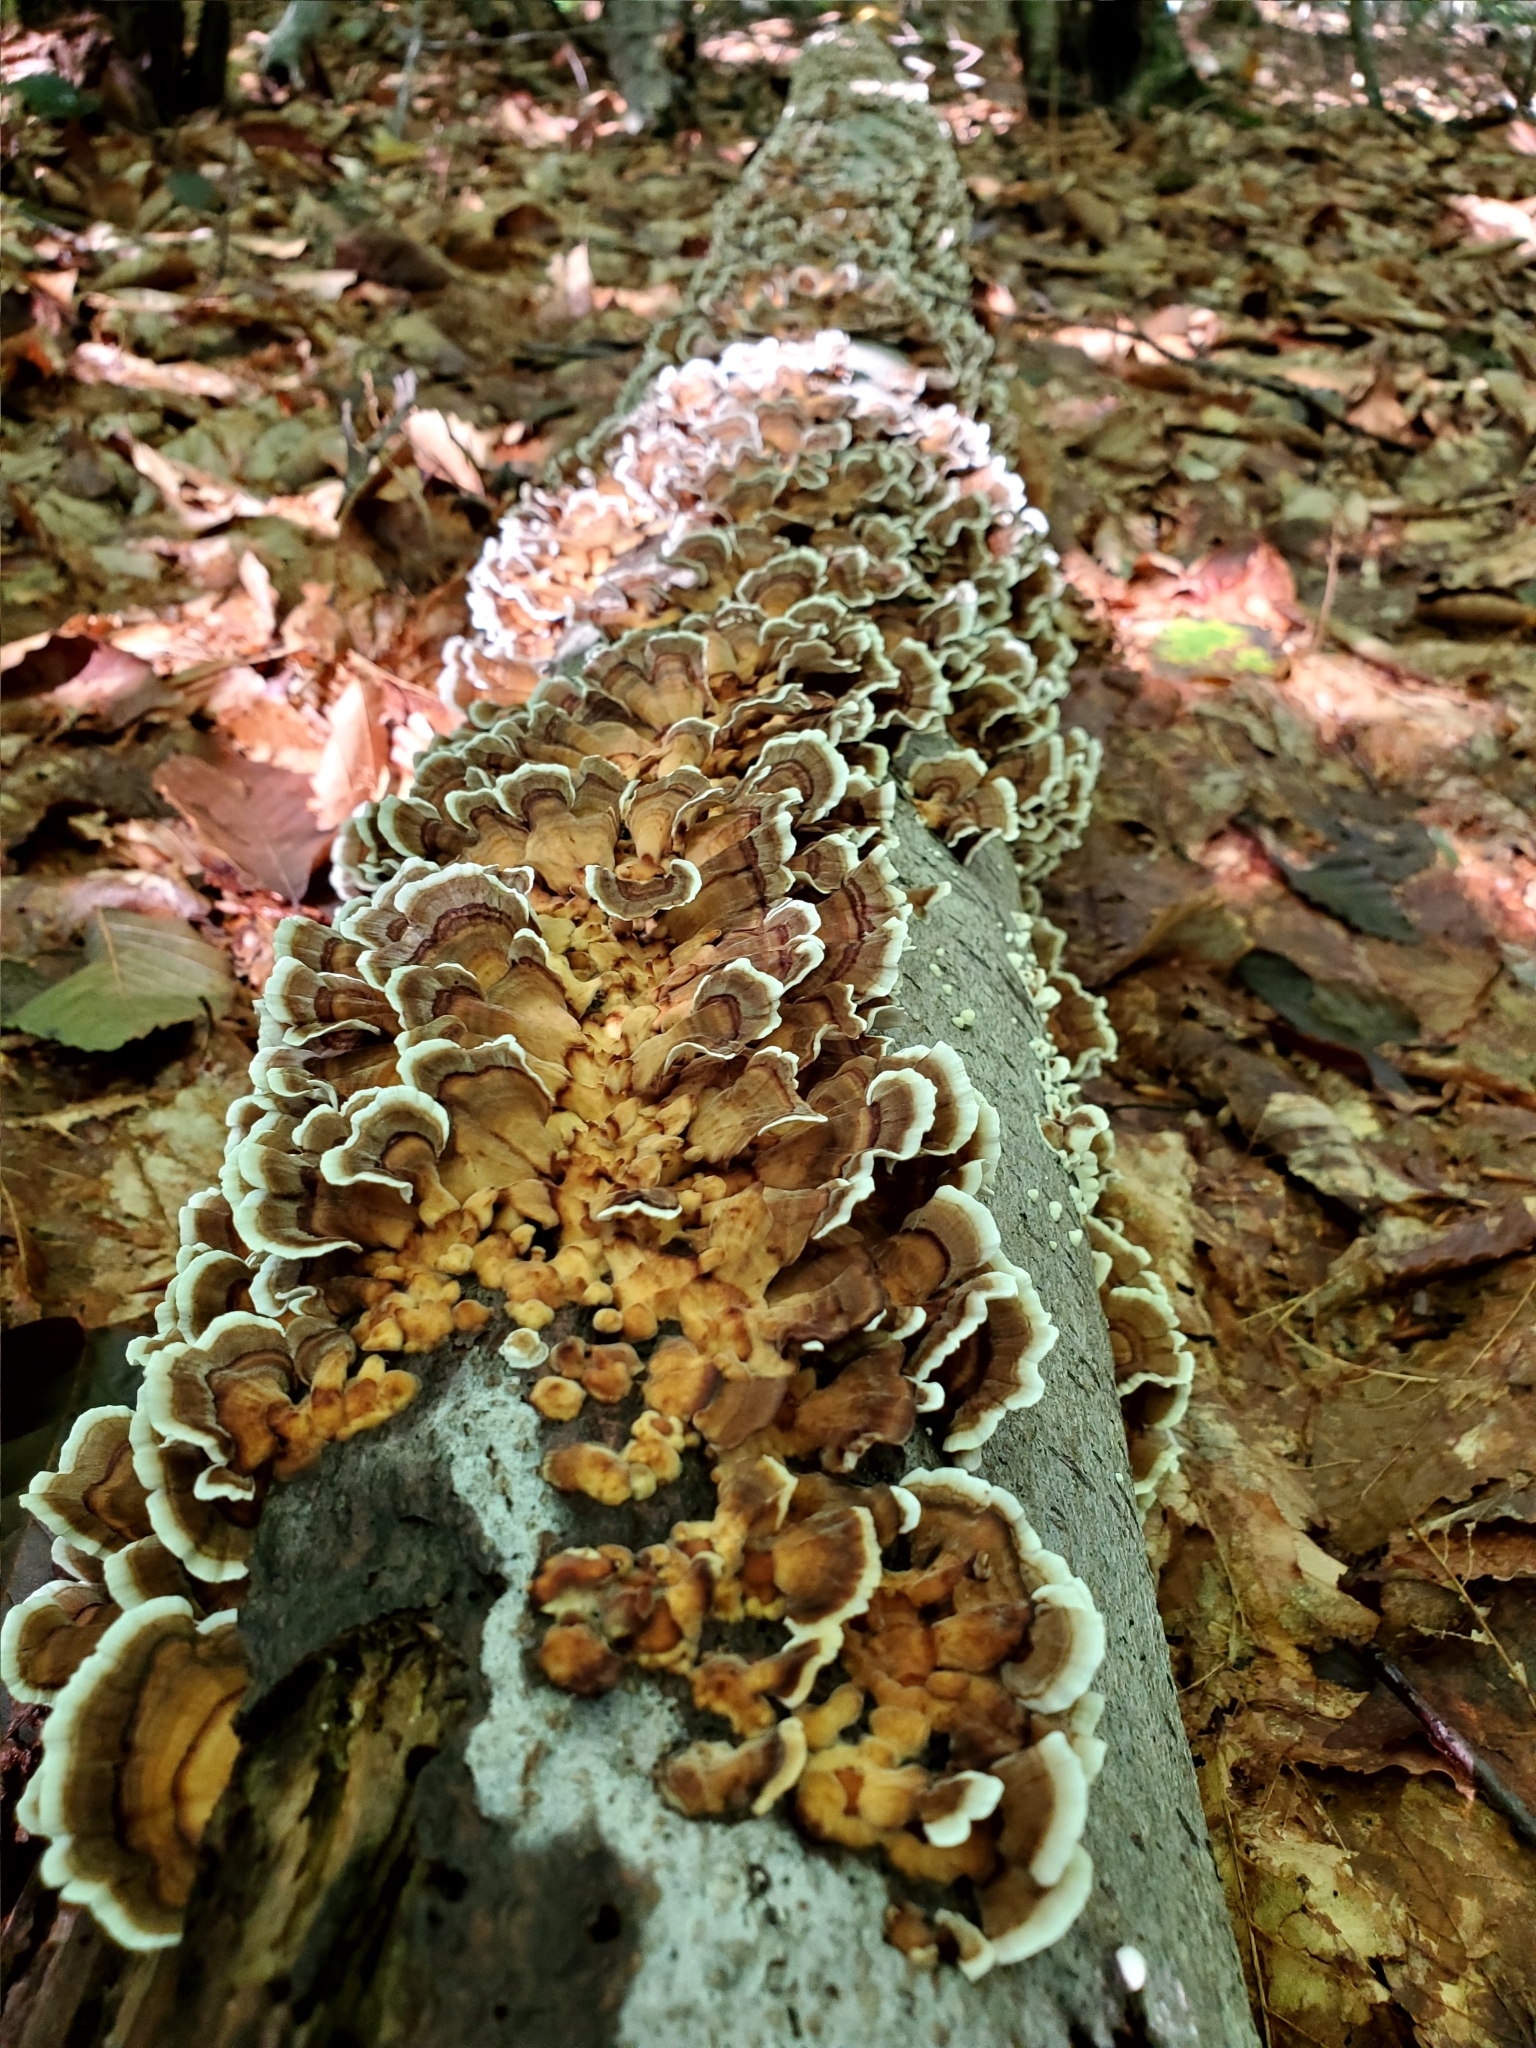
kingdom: Fungi
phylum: Basidiomycota
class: Agaricomycetes
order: Polyporales
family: Polyporaceae
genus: Trametes
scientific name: Trametes versicolor
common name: Turkeytail
